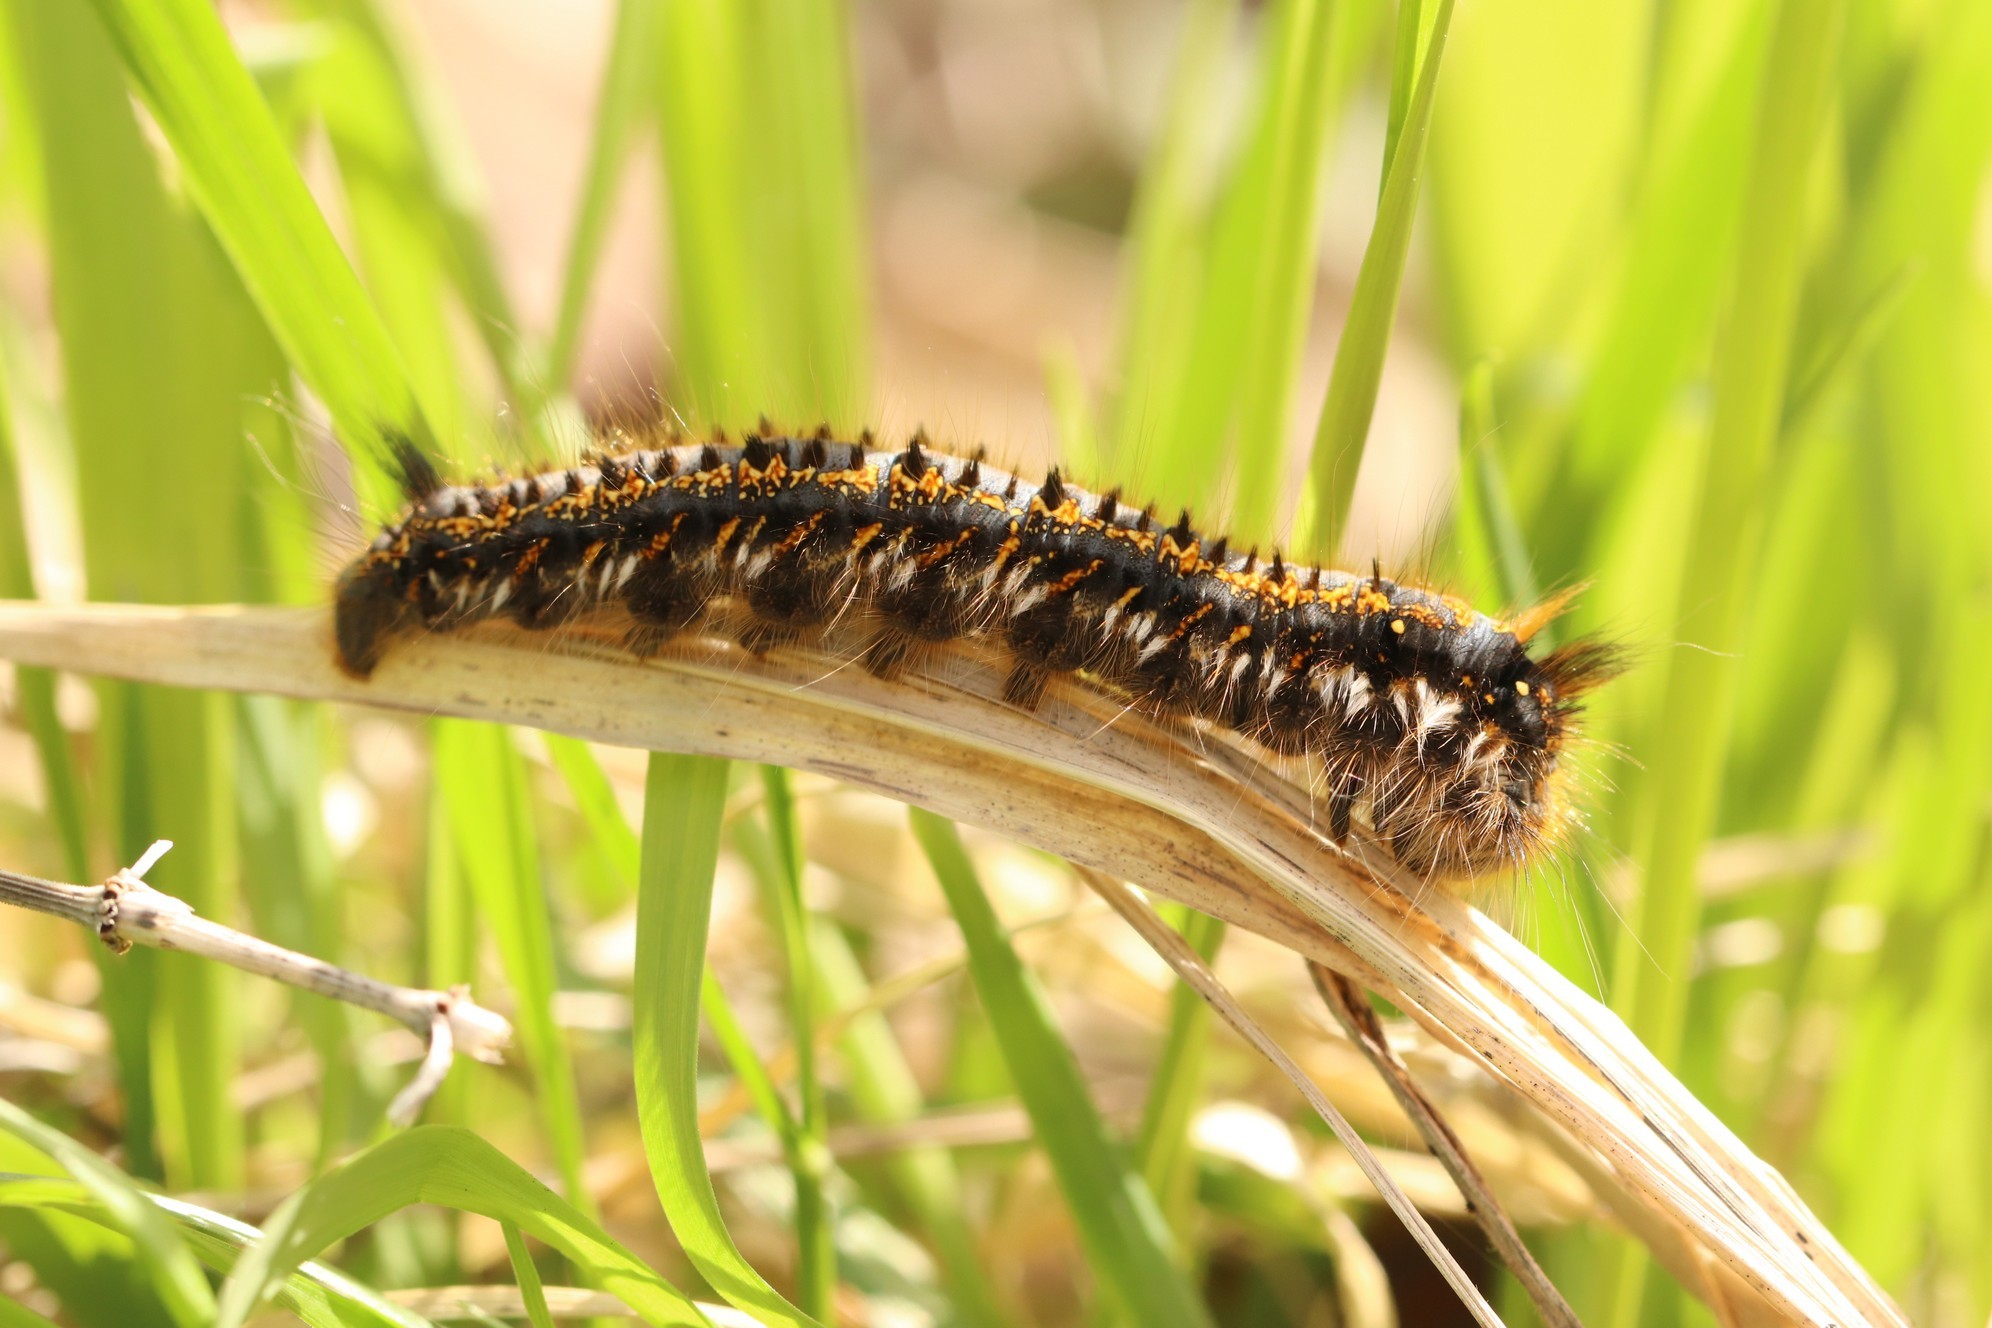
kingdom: Animalia
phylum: Arthropoda
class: Insecta
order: Lepidoptera
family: Lasiocampidae
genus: Euthrix
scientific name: Euthrix potatoria
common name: Drinker
